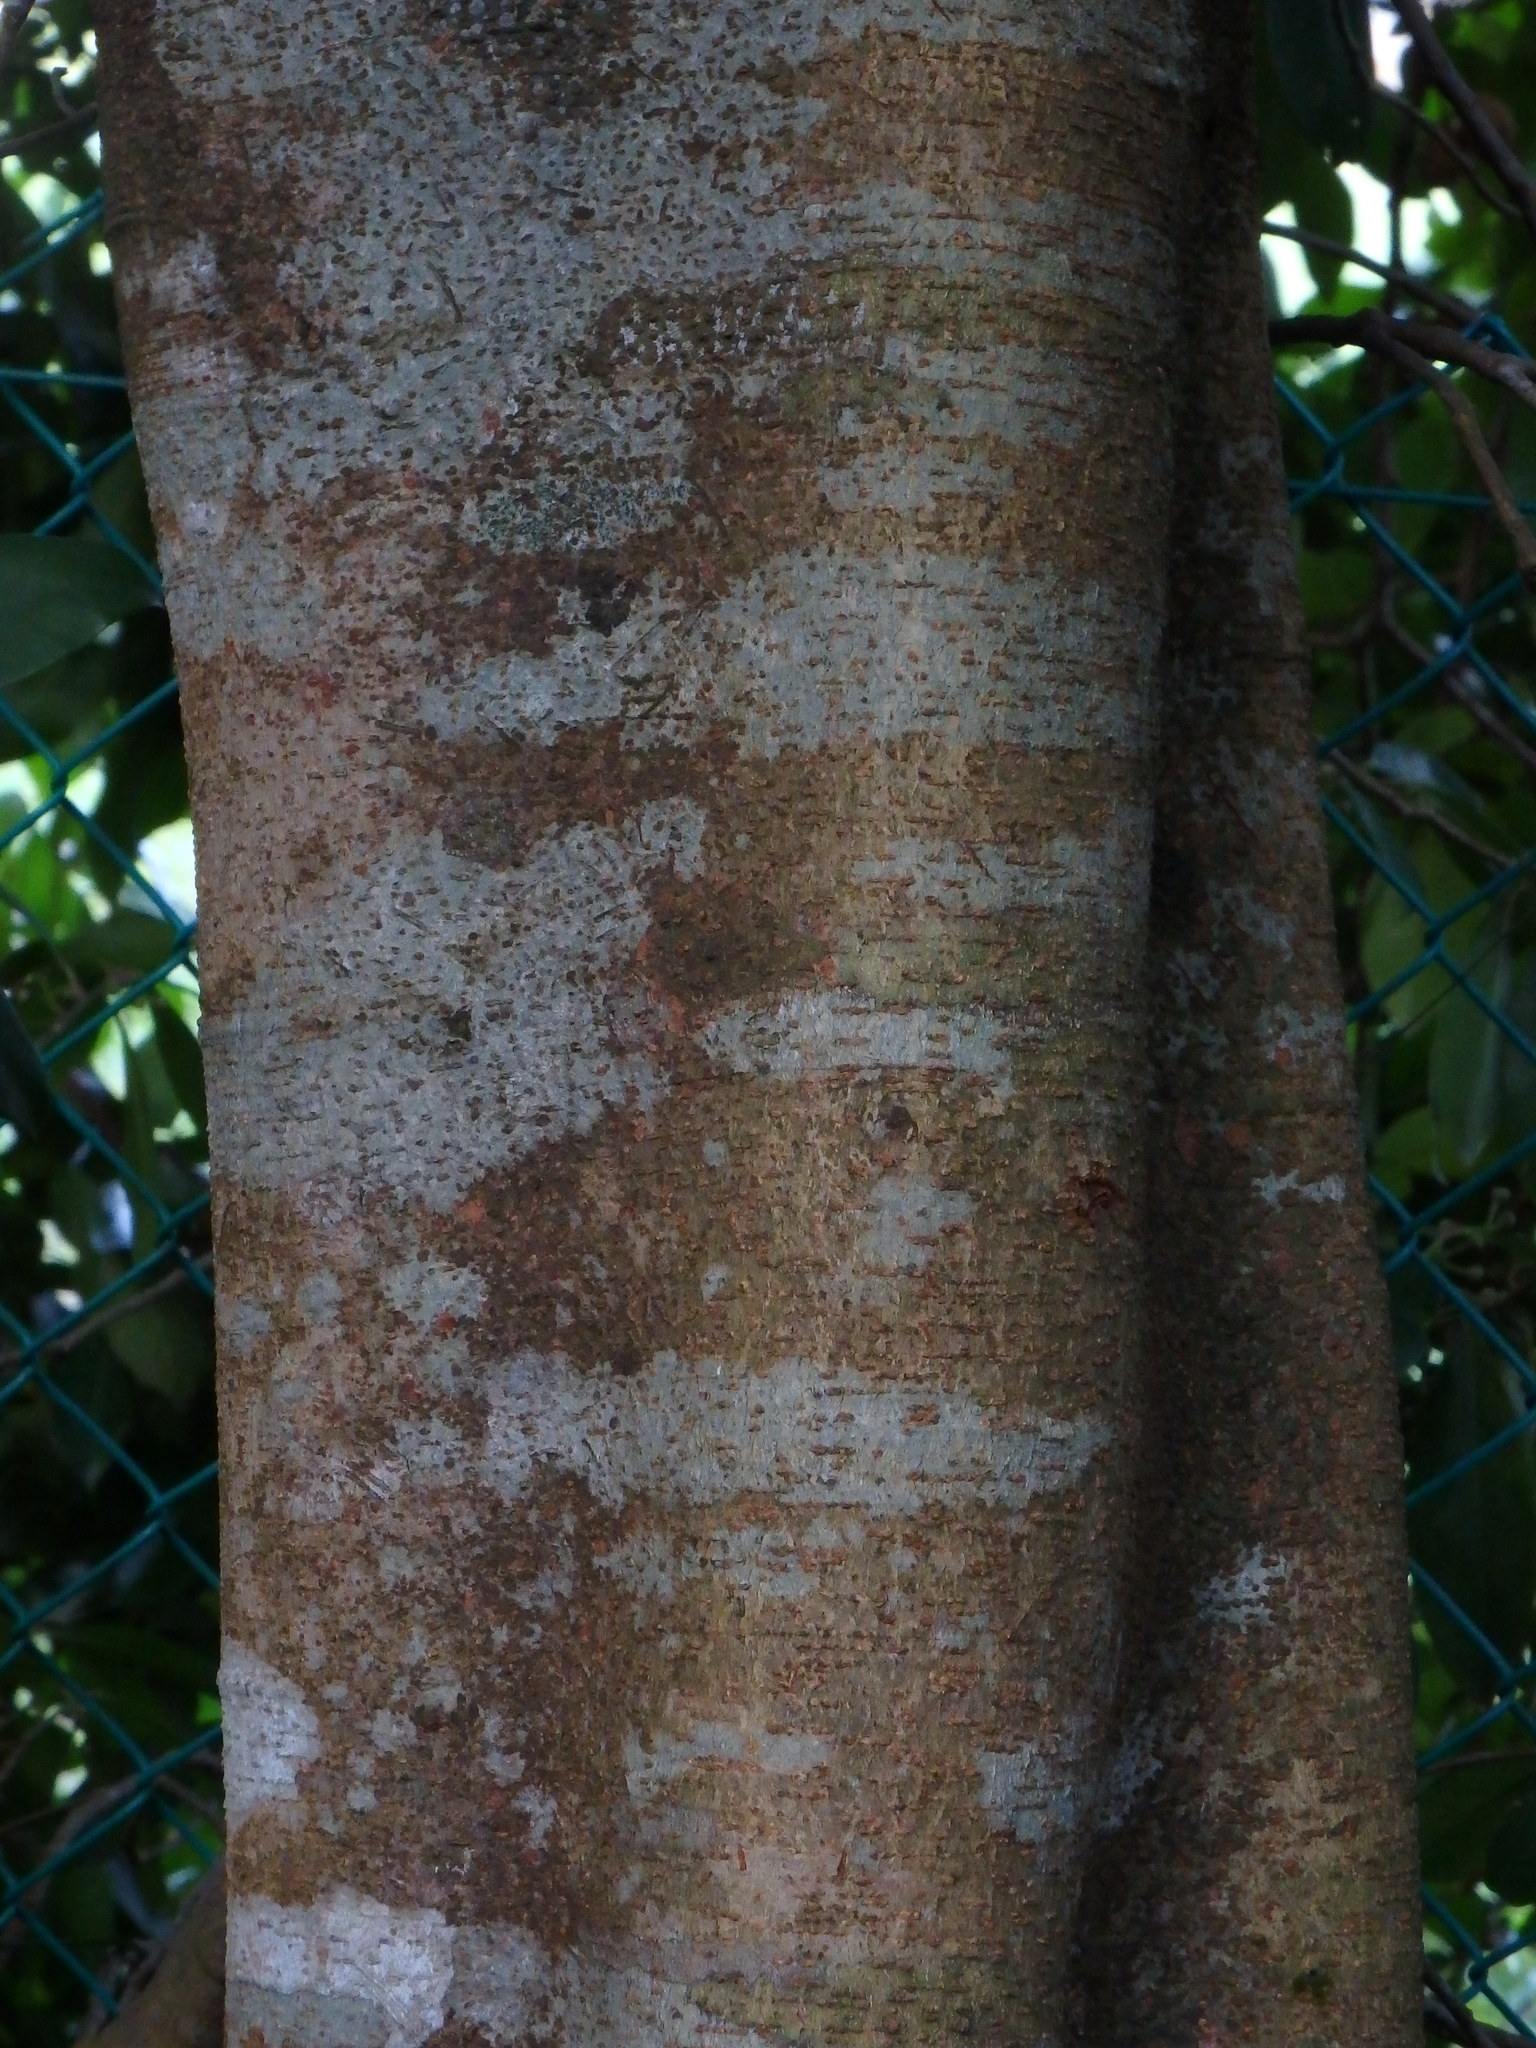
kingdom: Plantae
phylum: Tracheophyta
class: Magnoliopsida
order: Fabales
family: Fabaceae
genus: Cynometra
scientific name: Cynometra ramiflora
